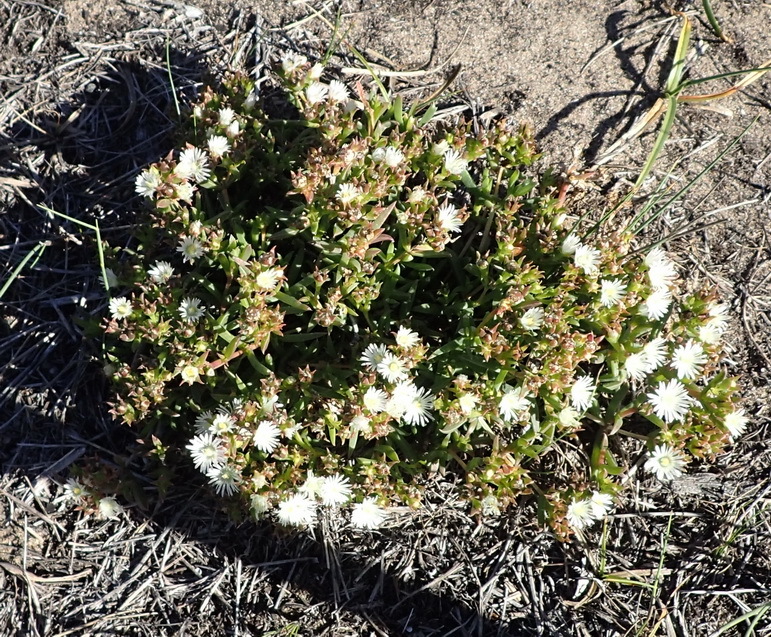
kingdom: Plantae
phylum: Tracheophyta
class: Magnoliopsida
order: Caryophyllales
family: Aizoaceae
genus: Delosperma
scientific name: Delosperma inconspicuum
